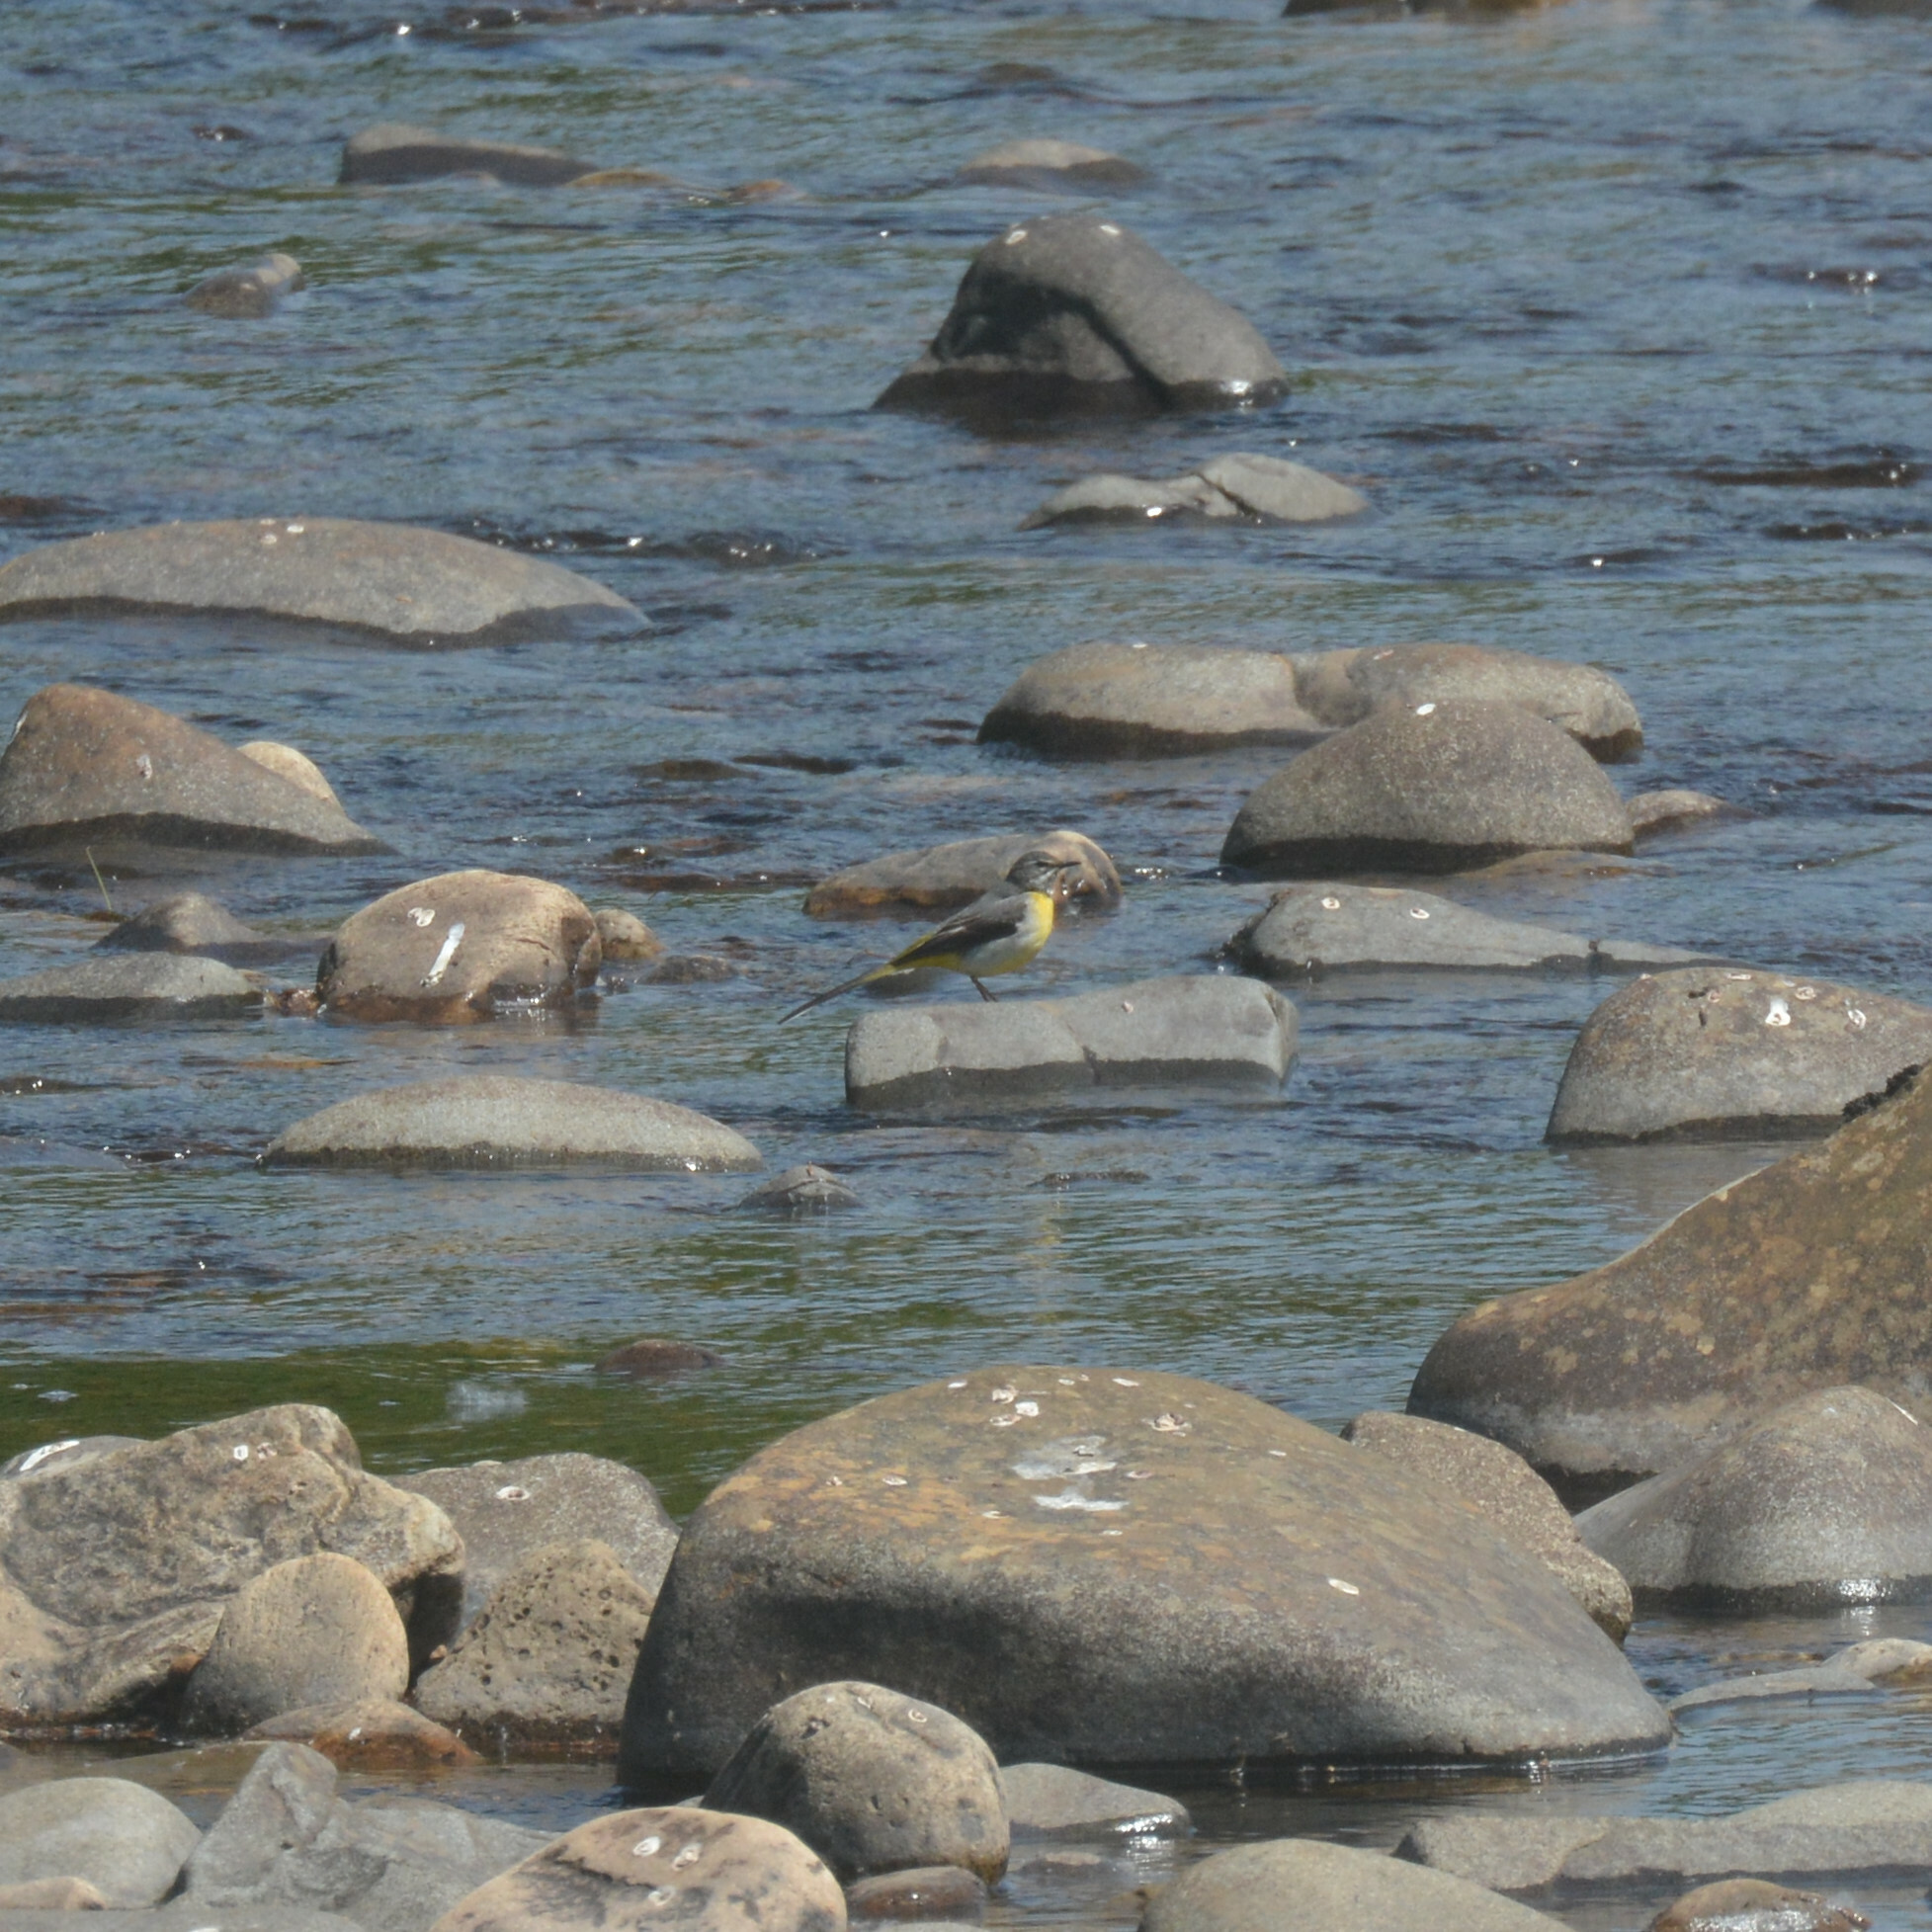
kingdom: Animalia
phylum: Chordata
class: Aves
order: Passeriformes
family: Motacillidae
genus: Motacilla
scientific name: Motacilla cinerea
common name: Grey wagtail
